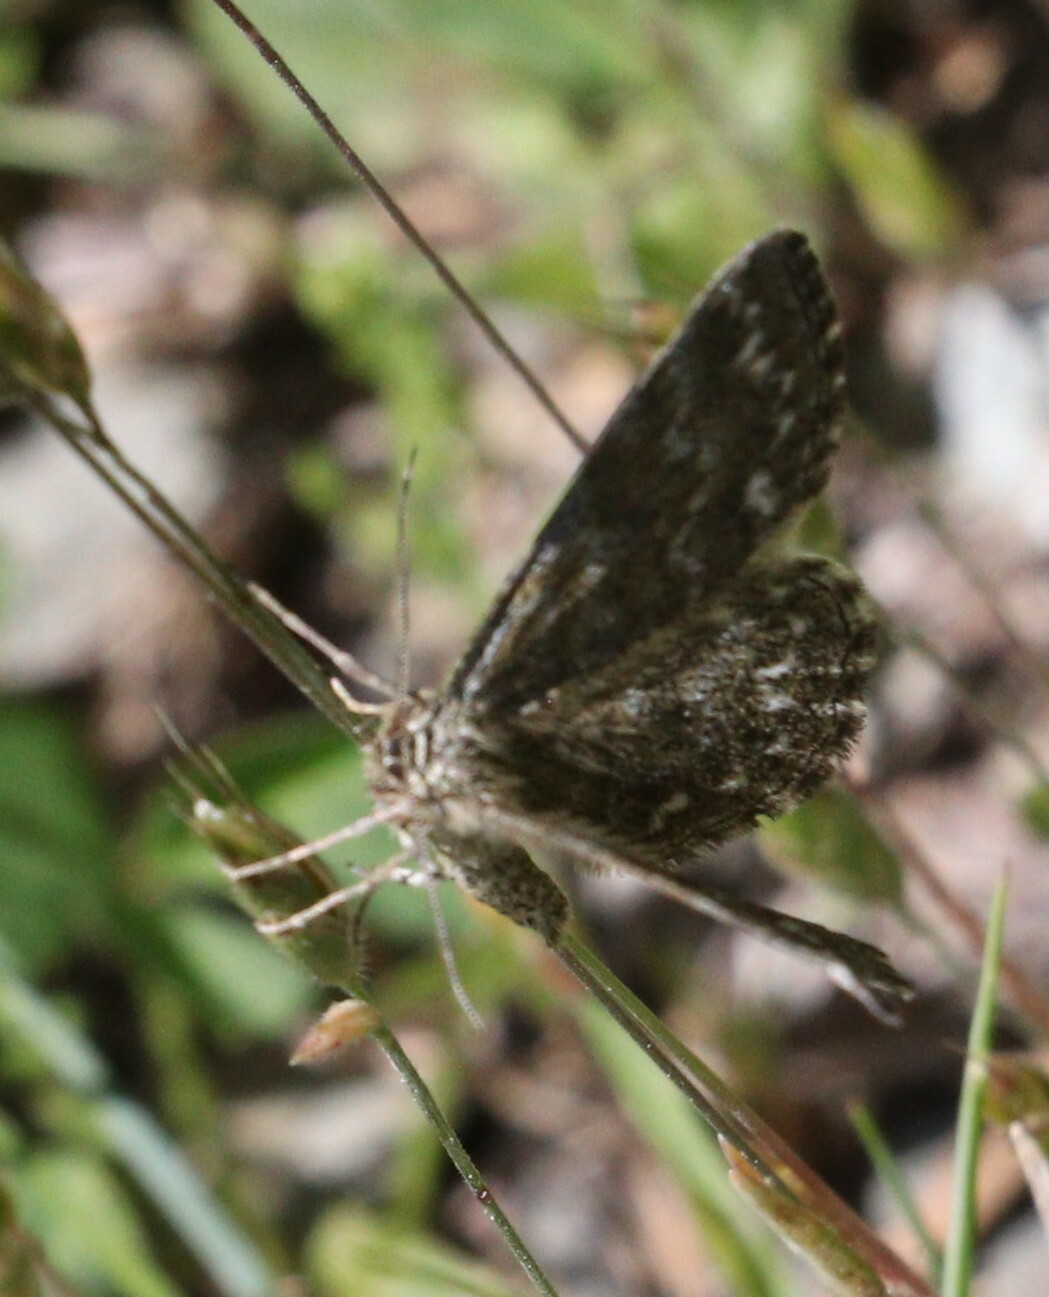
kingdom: Animalia
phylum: Arthropoda
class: Insecta
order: Lepidoptera
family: Geometridae
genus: Scopula
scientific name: Scopula immorata
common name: Lewes wave
